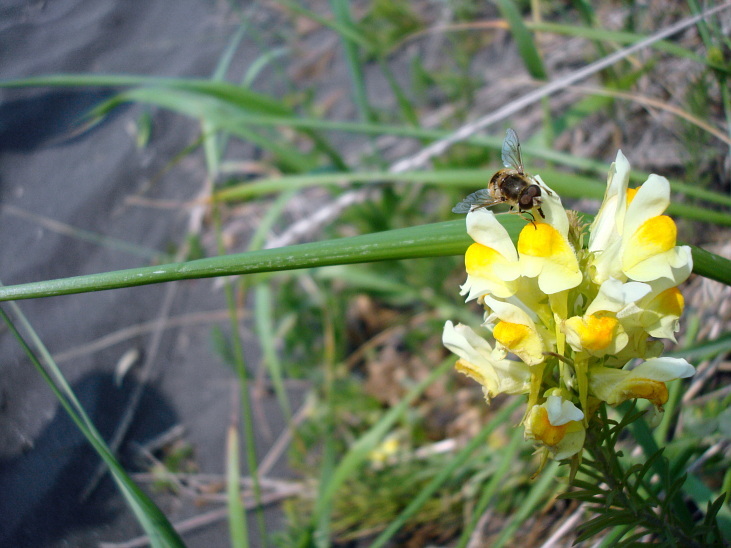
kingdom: Plantae
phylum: Tracheophyta
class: Magnoliopsida
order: Lamiales
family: Plantaginaceae
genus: Linaria
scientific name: Linaria vulgaris
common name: Butter and eggs
